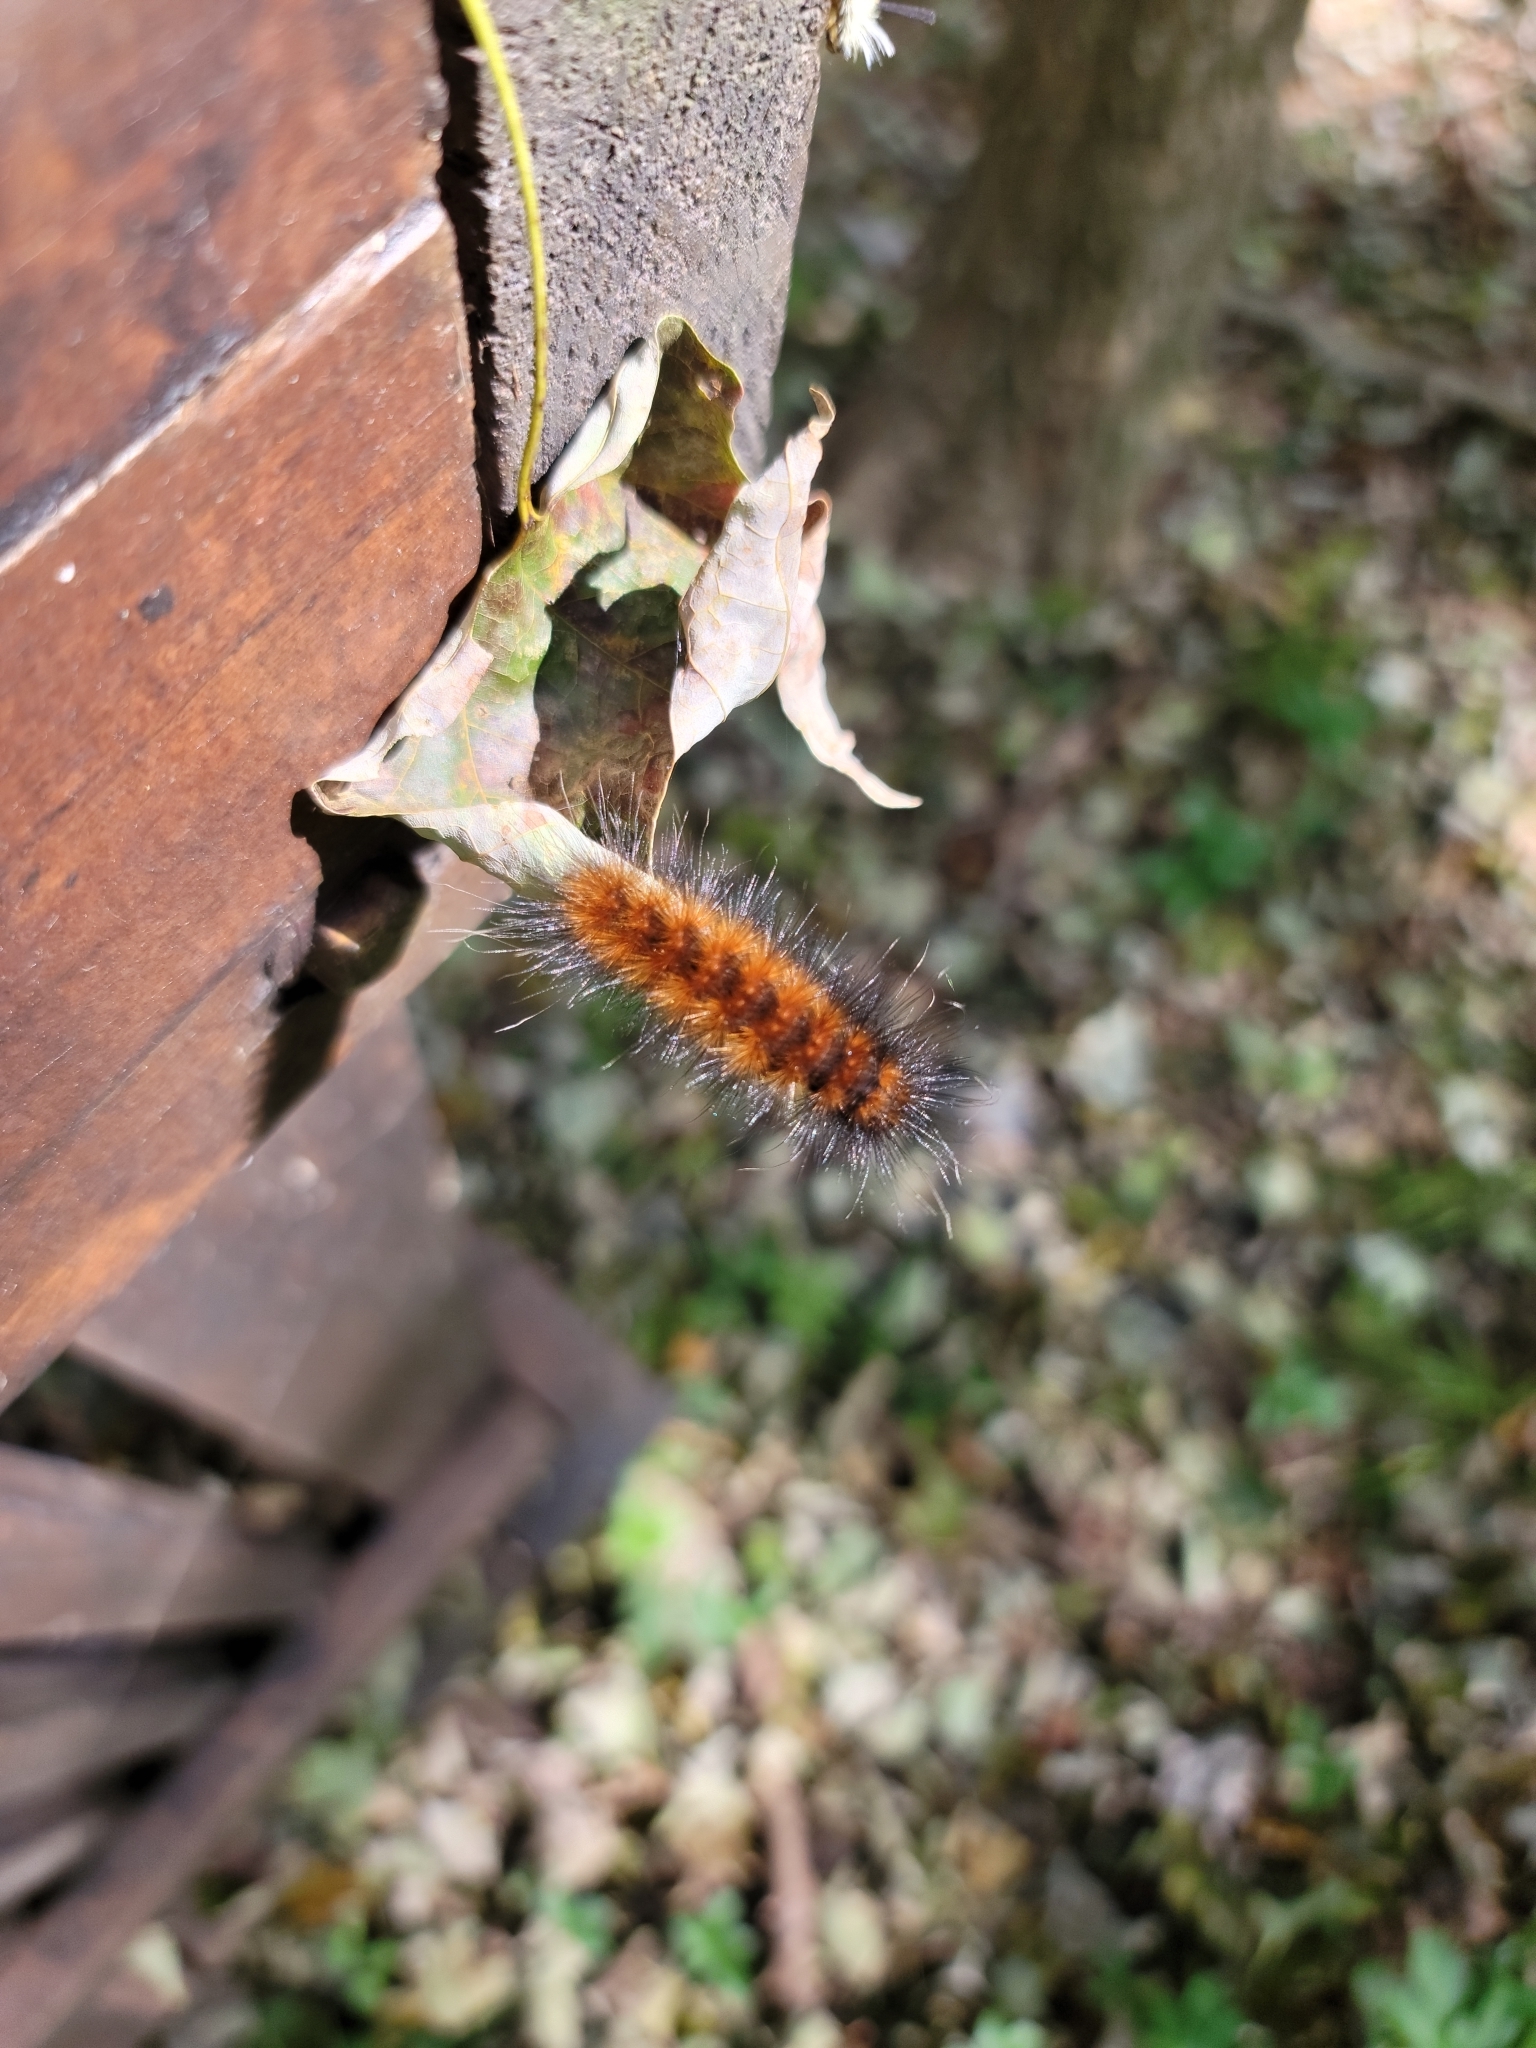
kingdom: Animalia
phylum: Arthropoda
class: Insecta
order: Lepidoptera
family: Erebidae
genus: Spilosoma
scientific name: Spilosoma virginica
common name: Virginia tiger moth
